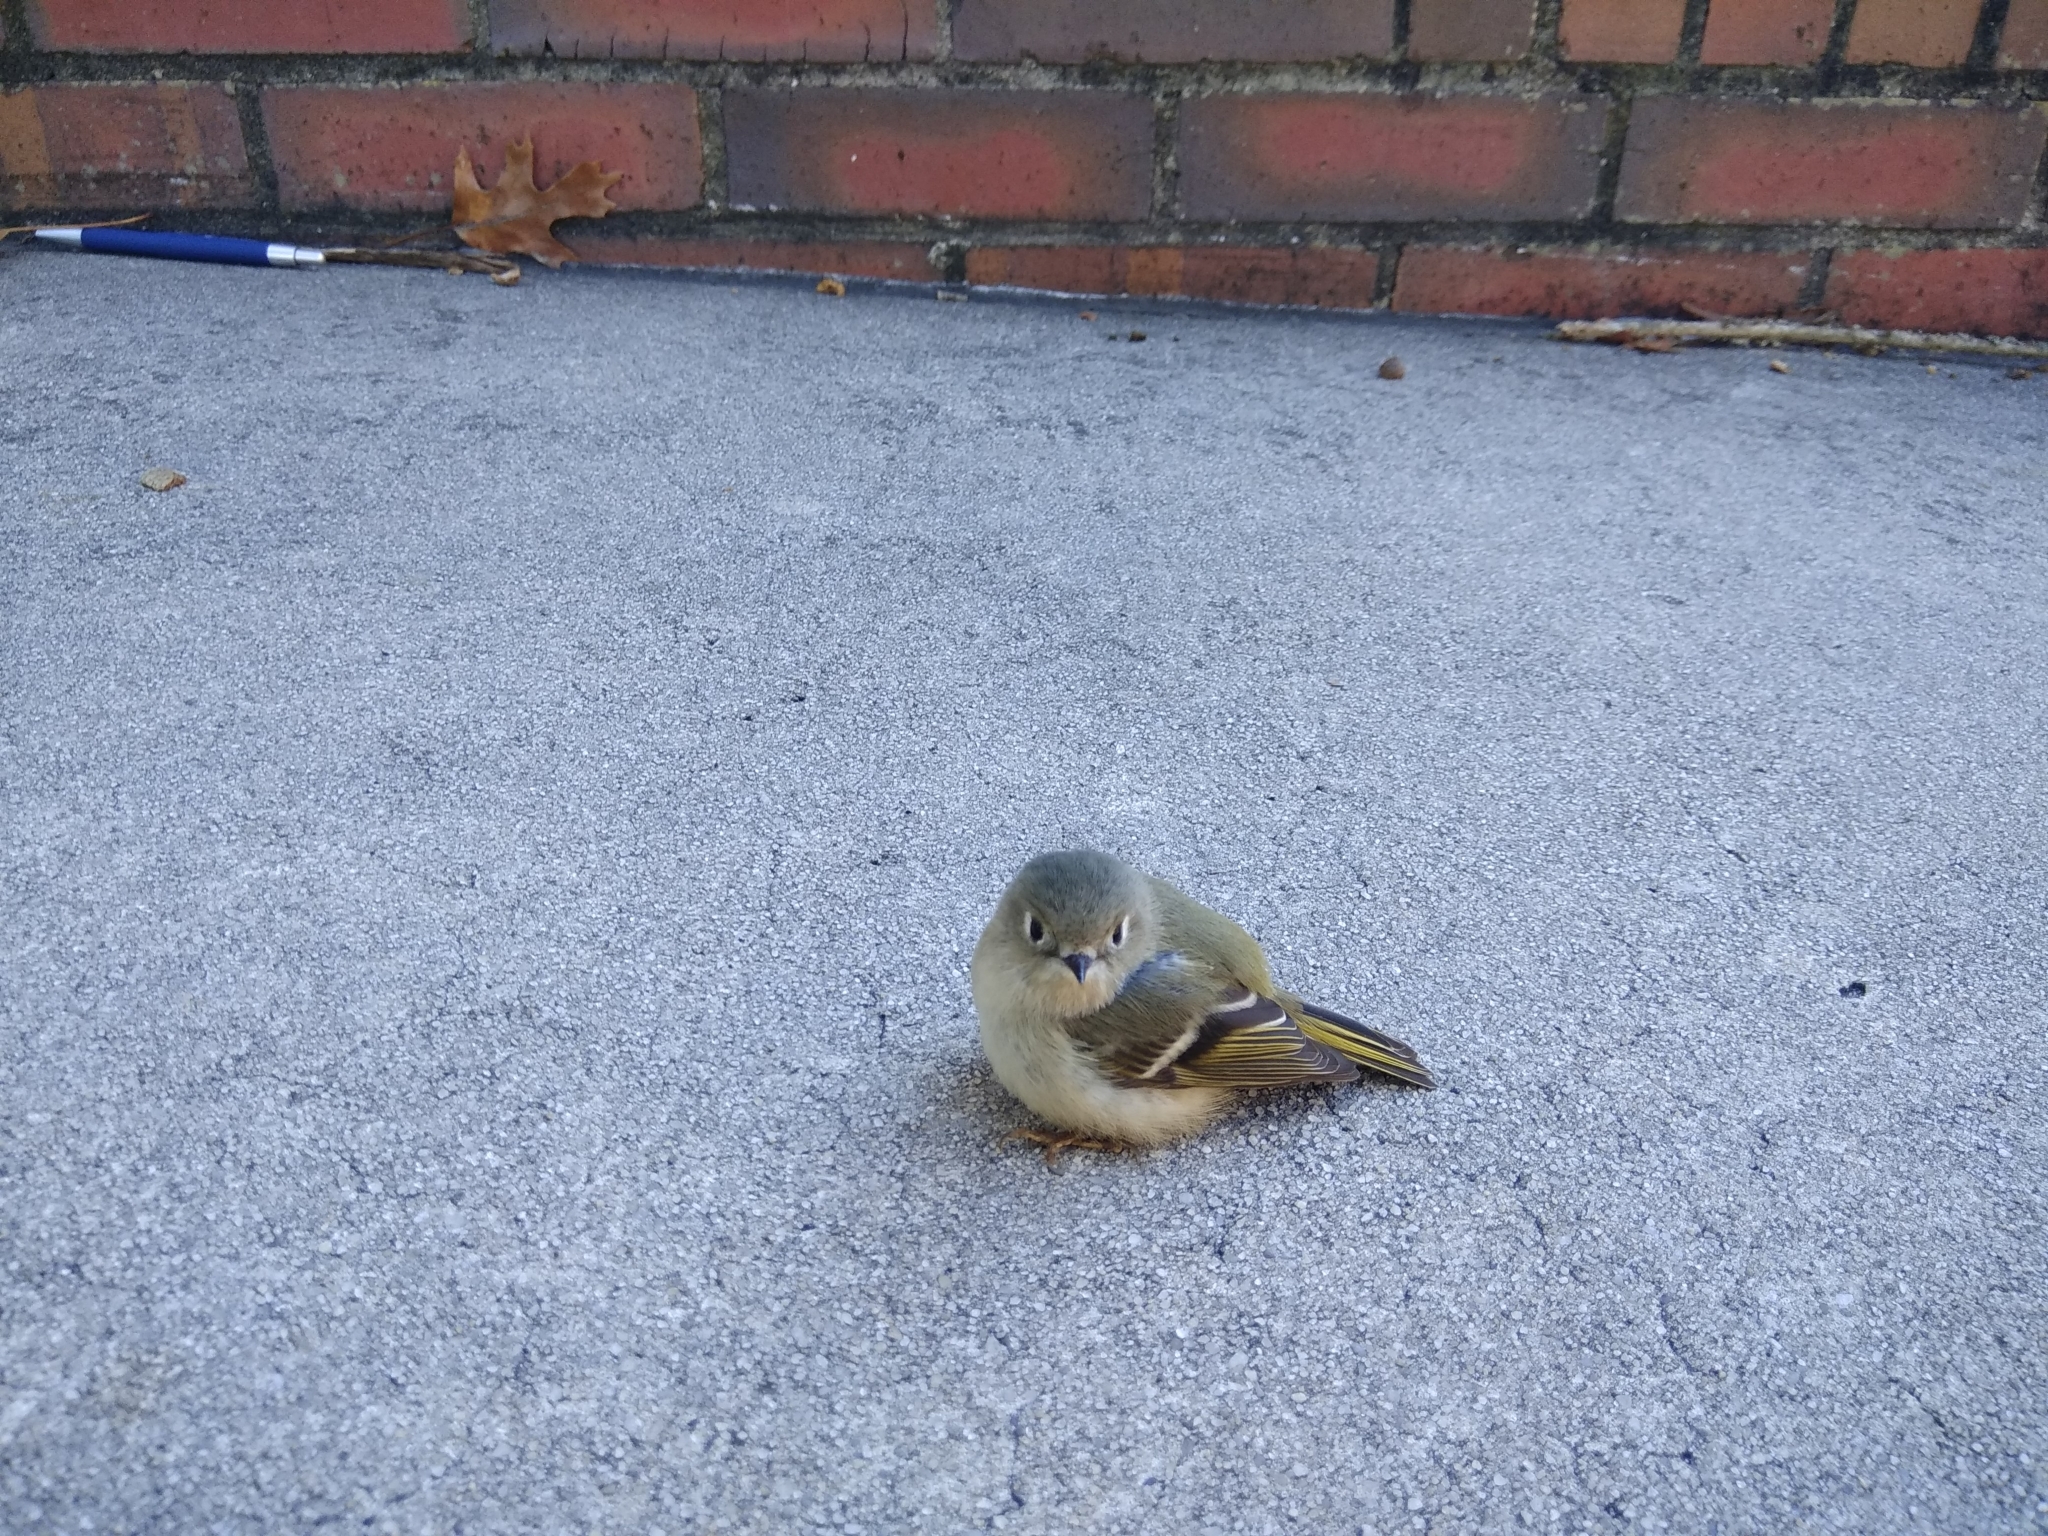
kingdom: Animalia
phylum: Chordata
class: Aves
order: Passeriformes
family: Regulidae
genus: Regulus
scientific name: Regulus calendula
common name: Ruby-crowned kinglet
